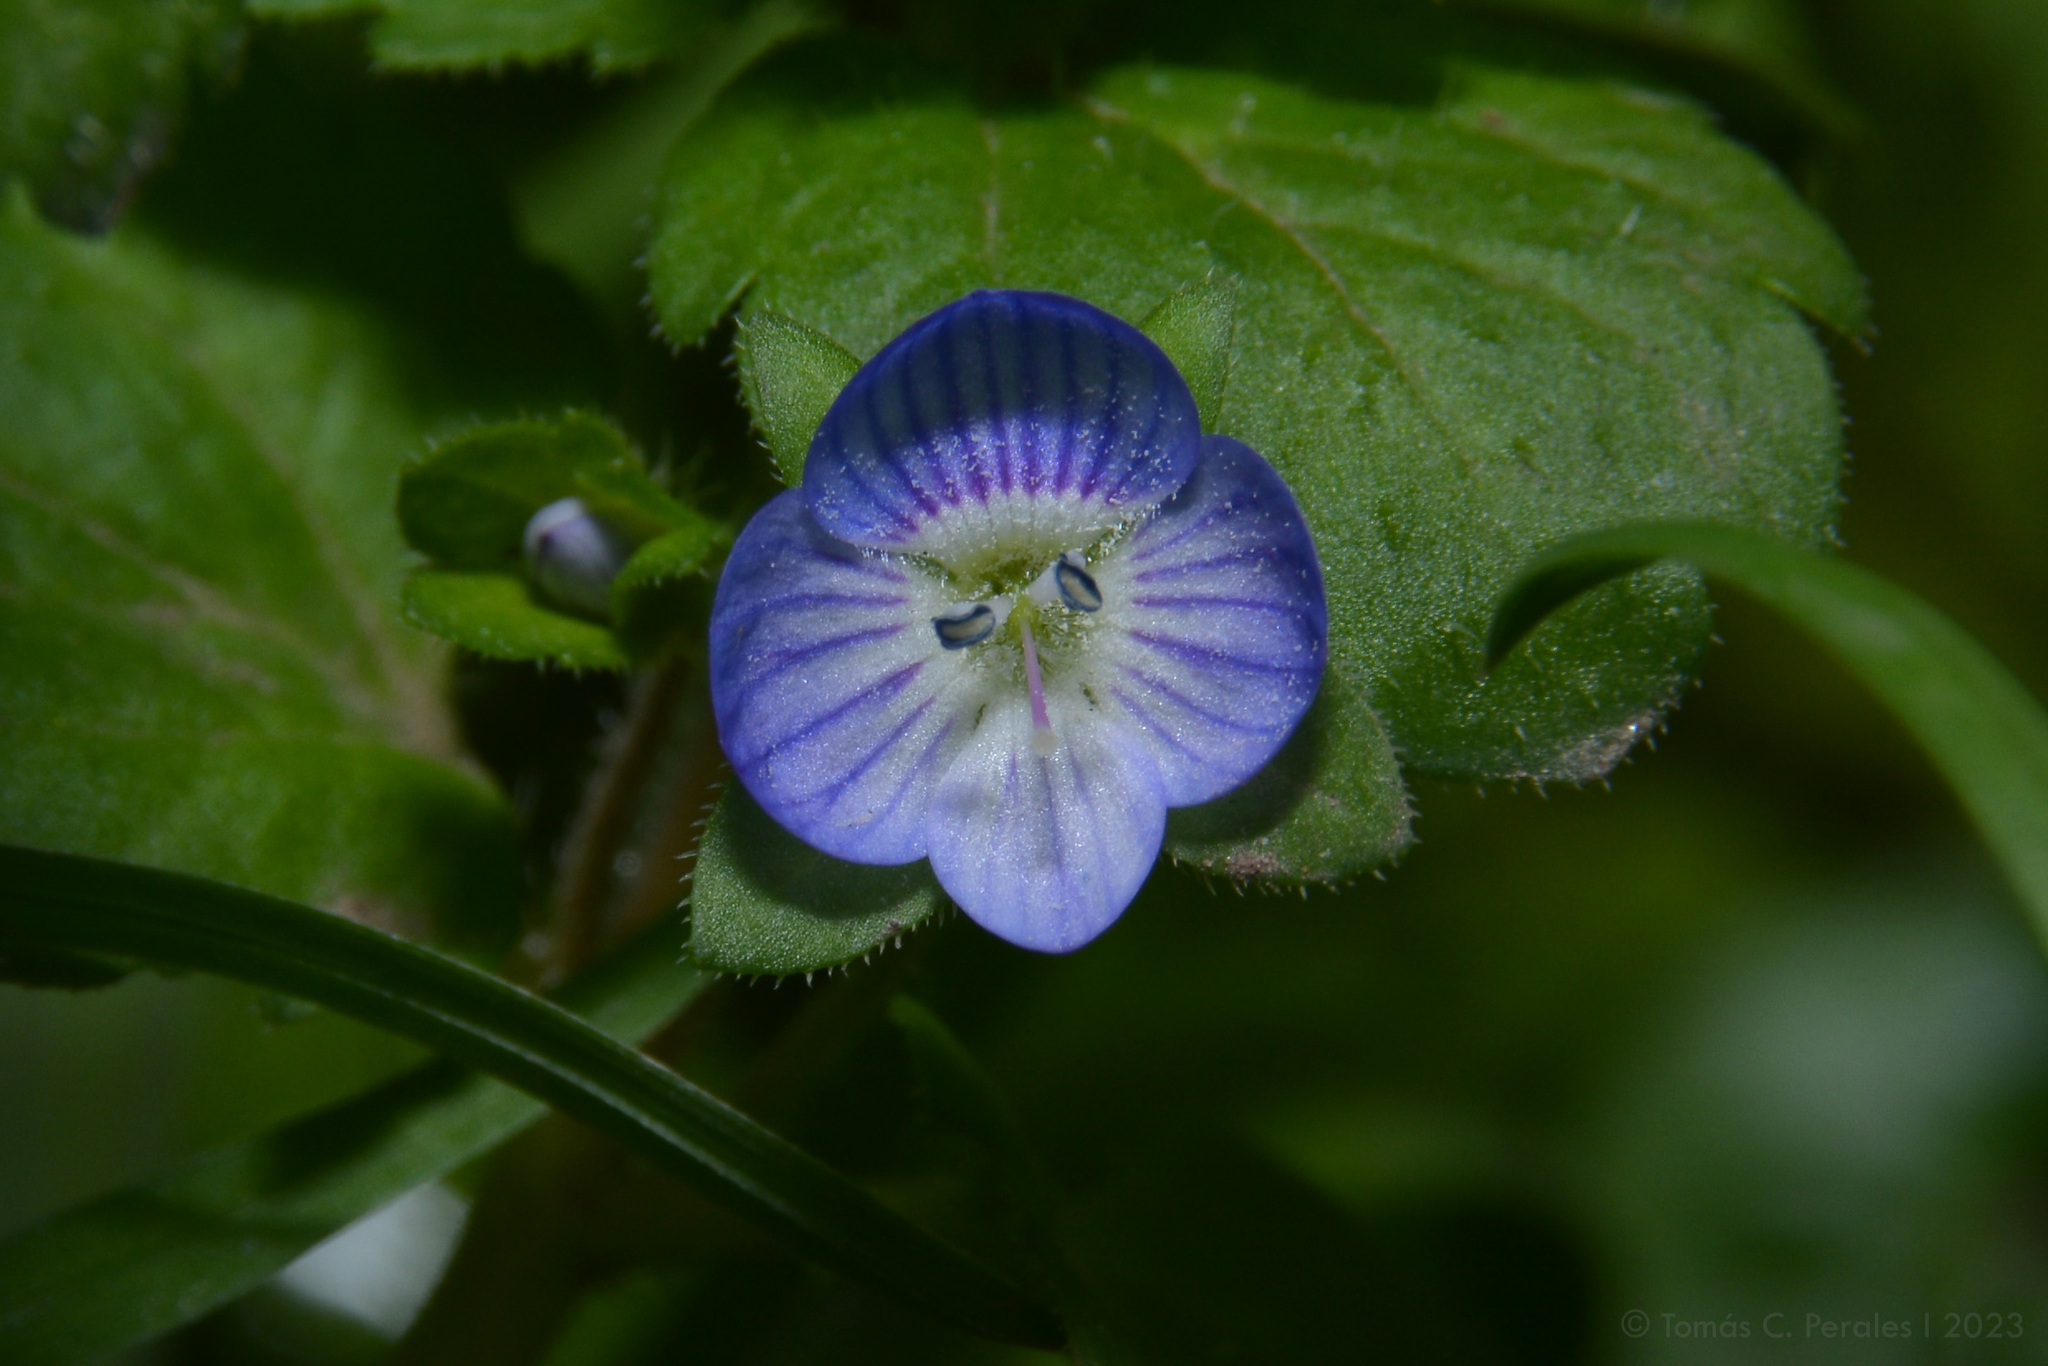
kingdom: Plantae
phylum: Tracheophyta
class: Magnoliopsida
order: Lamiales
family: Plantaginaceae
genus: Veronica
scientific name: Veronica persica
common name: Common field-speedwell
